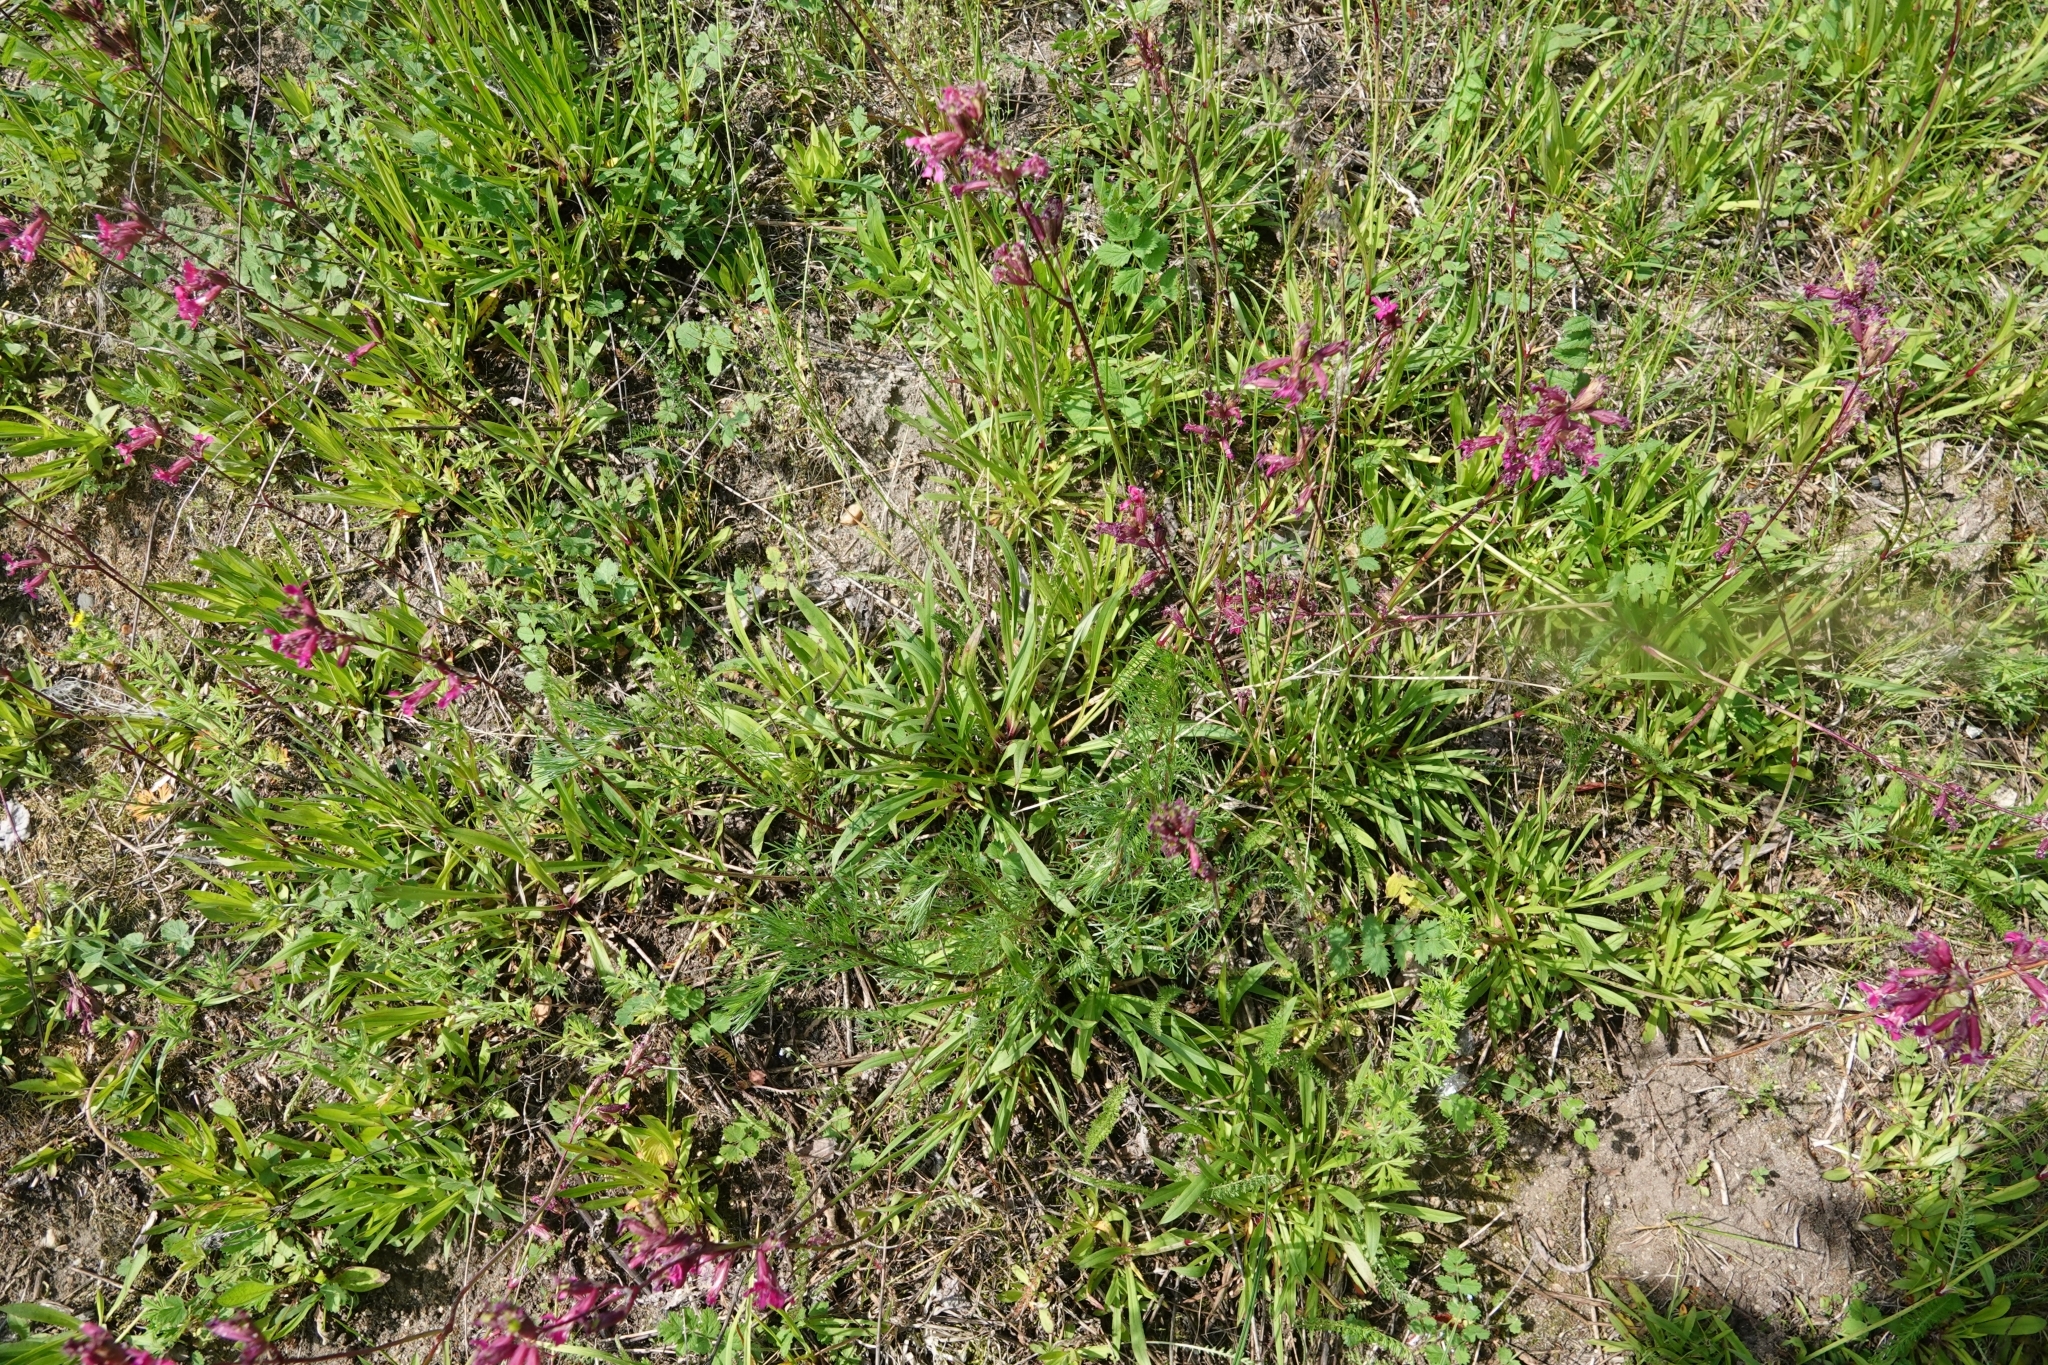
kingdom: Plantae
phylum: Tracheophyta
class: Magnoliopsida
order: Caryophyllales
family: Caryophyllaceae
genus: Viscaria
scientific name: Viscaria vulgaris
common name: Clammy campion
